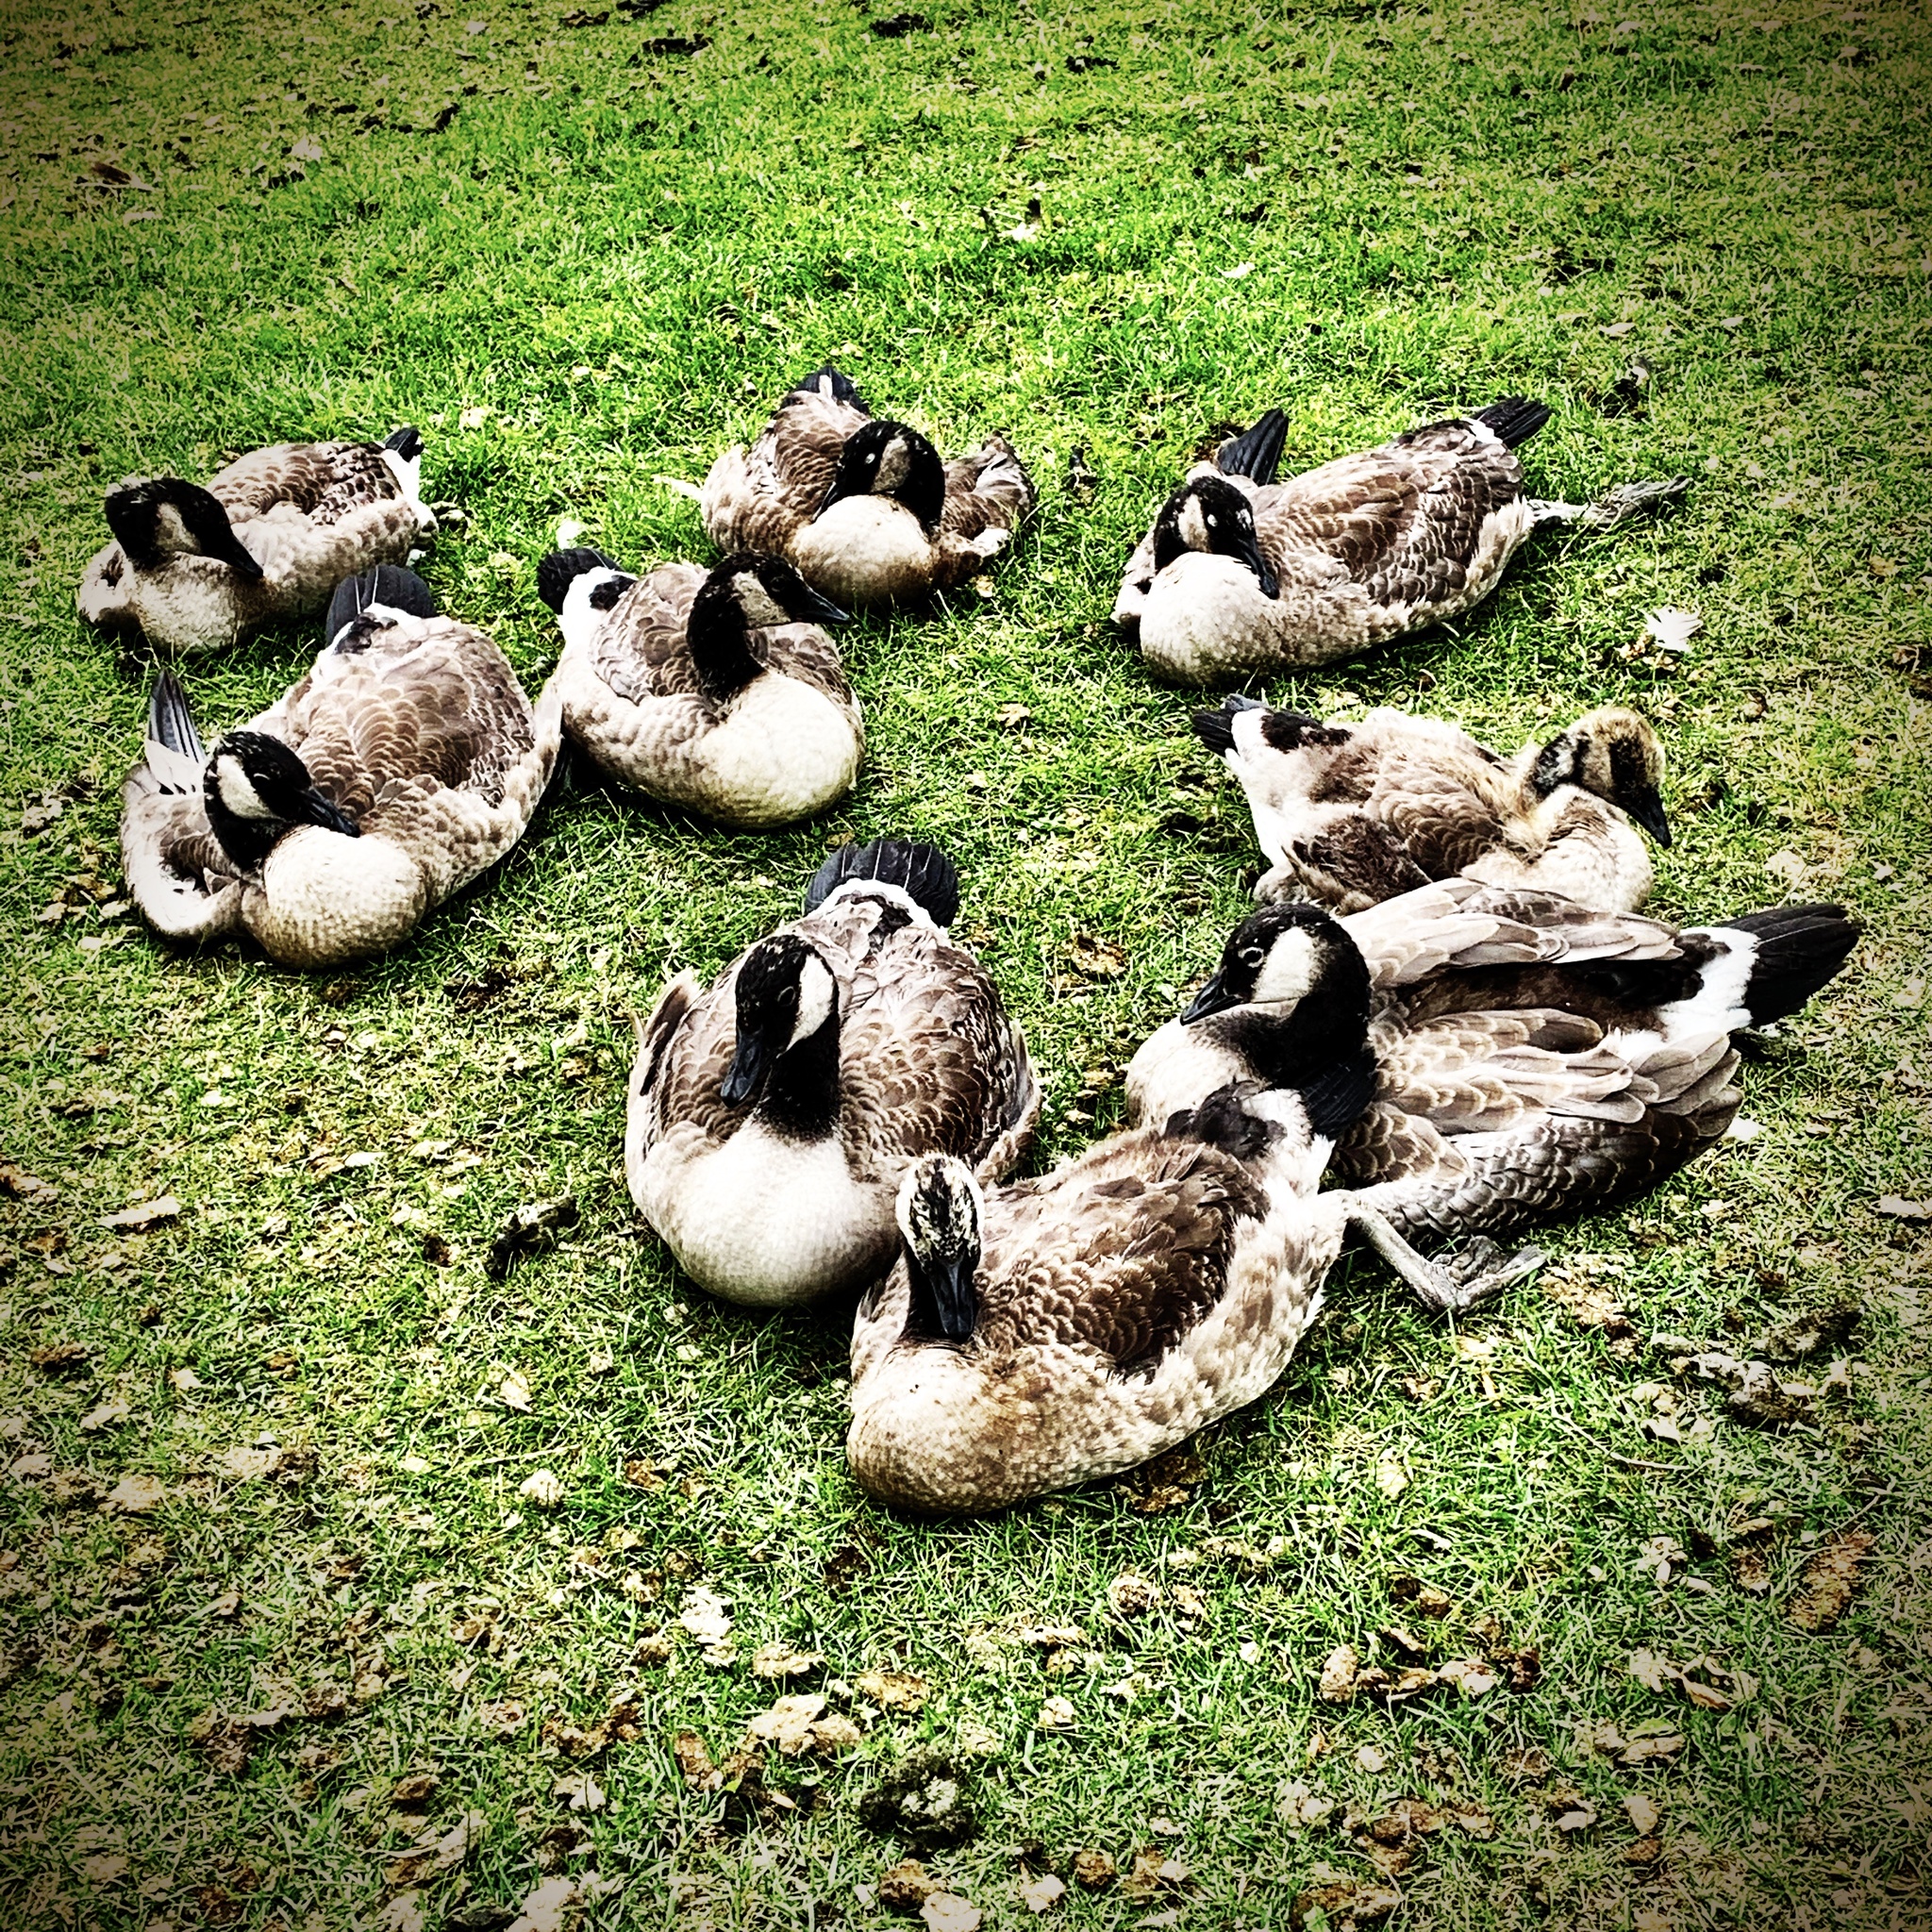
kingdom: Animalia
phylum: Chordata
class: Aves
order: Anseriformes
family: Anatidae
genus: Branta
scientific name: Branta canadensis
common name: Canada goose
